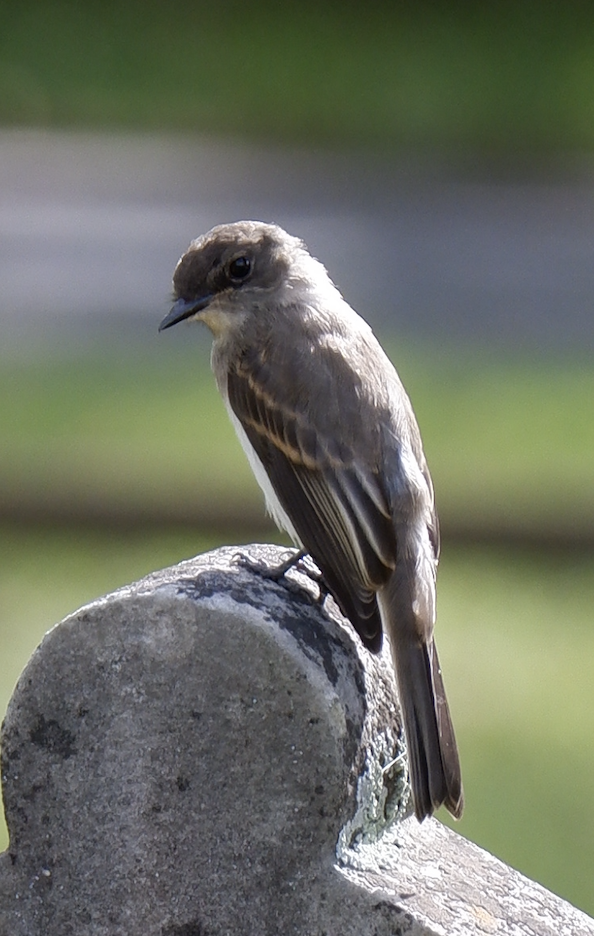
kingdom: Animalia
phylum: Chordata
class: Aves
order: Passeriformes
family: Tyrannidae
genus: Sayornis
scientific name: Sayornis phoebe
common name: Eastern phoebe
